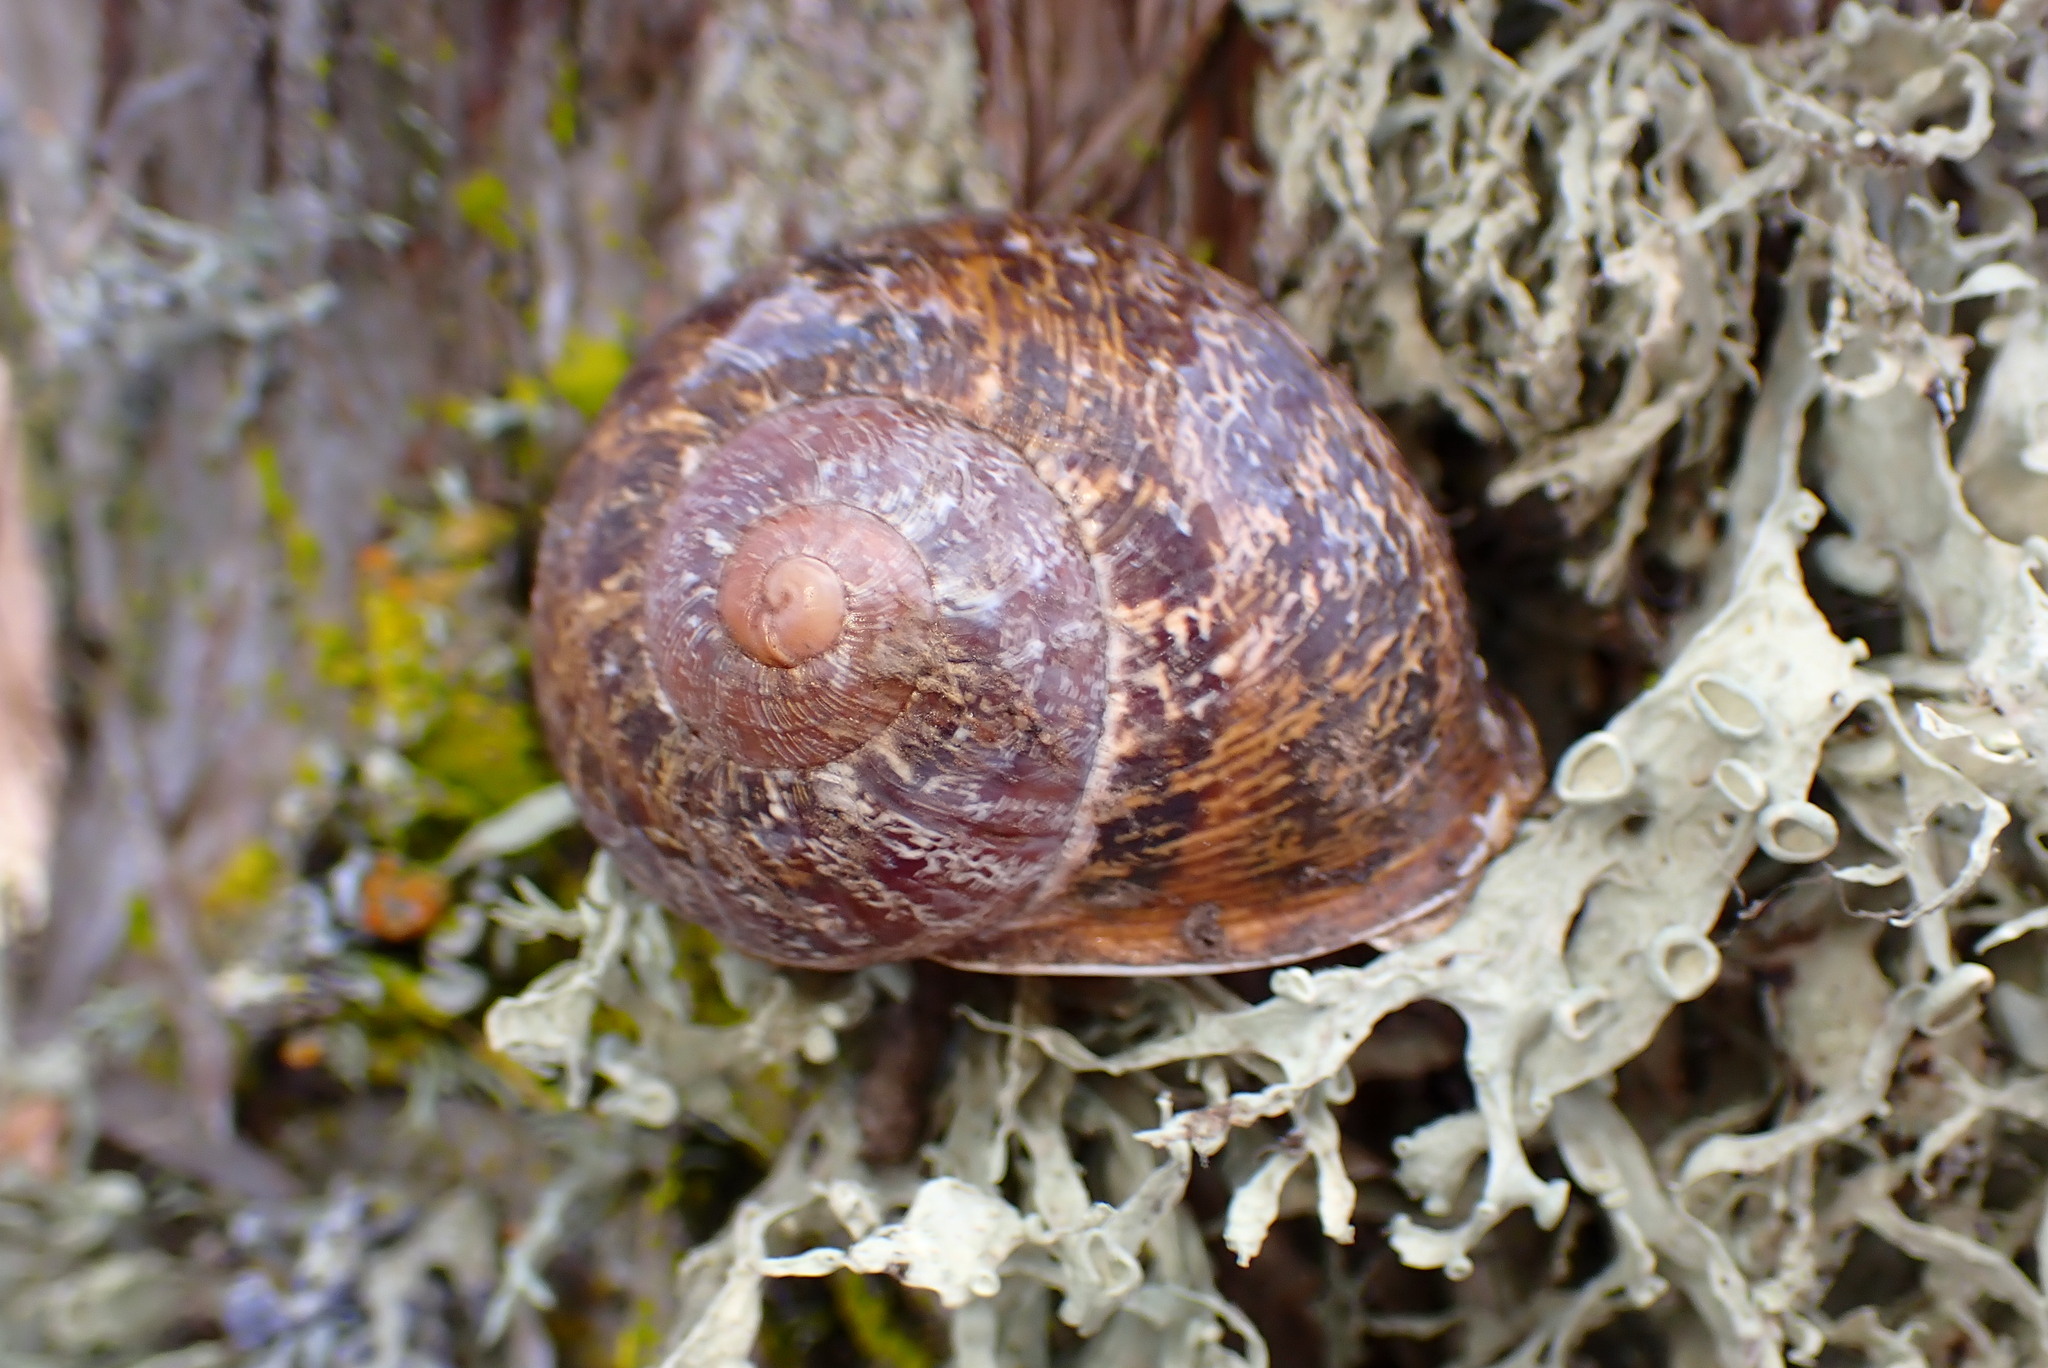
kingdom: Animalia
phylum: Mollusca
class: Gastropoda
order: Stylommatophora
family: Helicidae
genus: Cornu
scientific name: Cornu aspersum
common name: Brown garden snail
